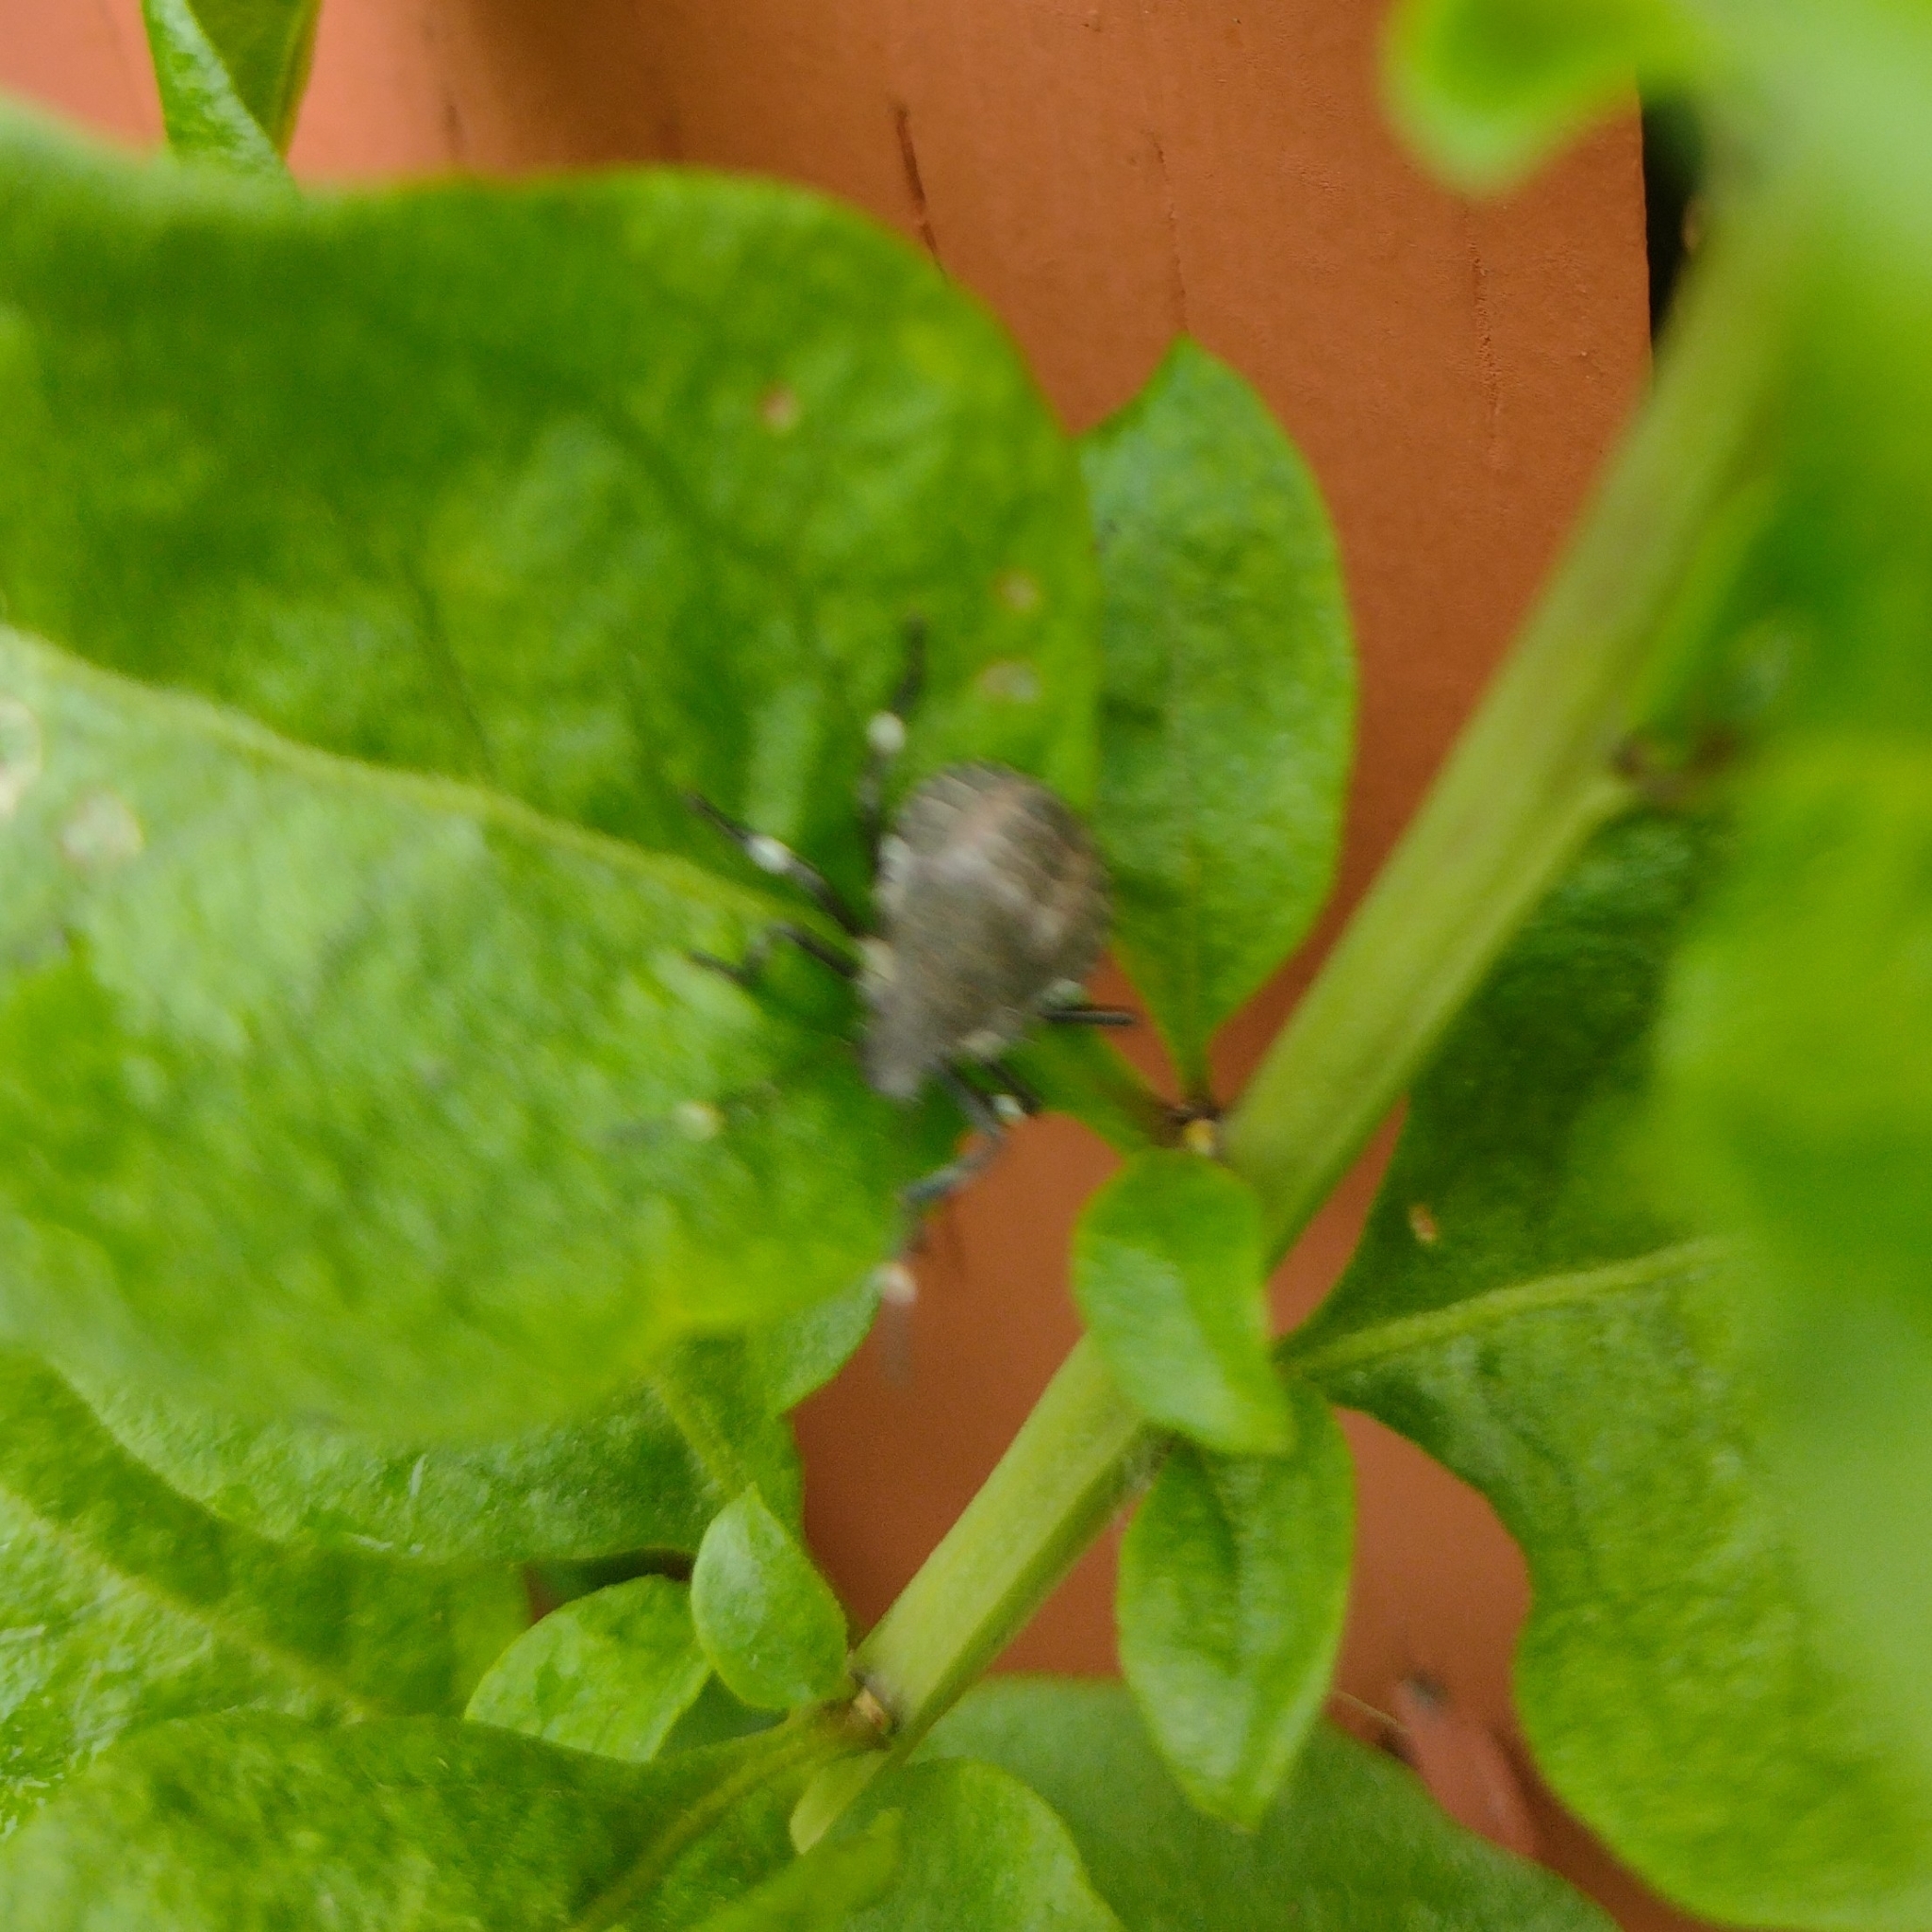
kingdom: Animalia
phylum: Arthropoda
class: Insecta
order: Hemiptera
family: Pentatomidae
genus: Halyomorpha
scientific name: Halyomorpha halys
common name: Brown marmorated stink bug
